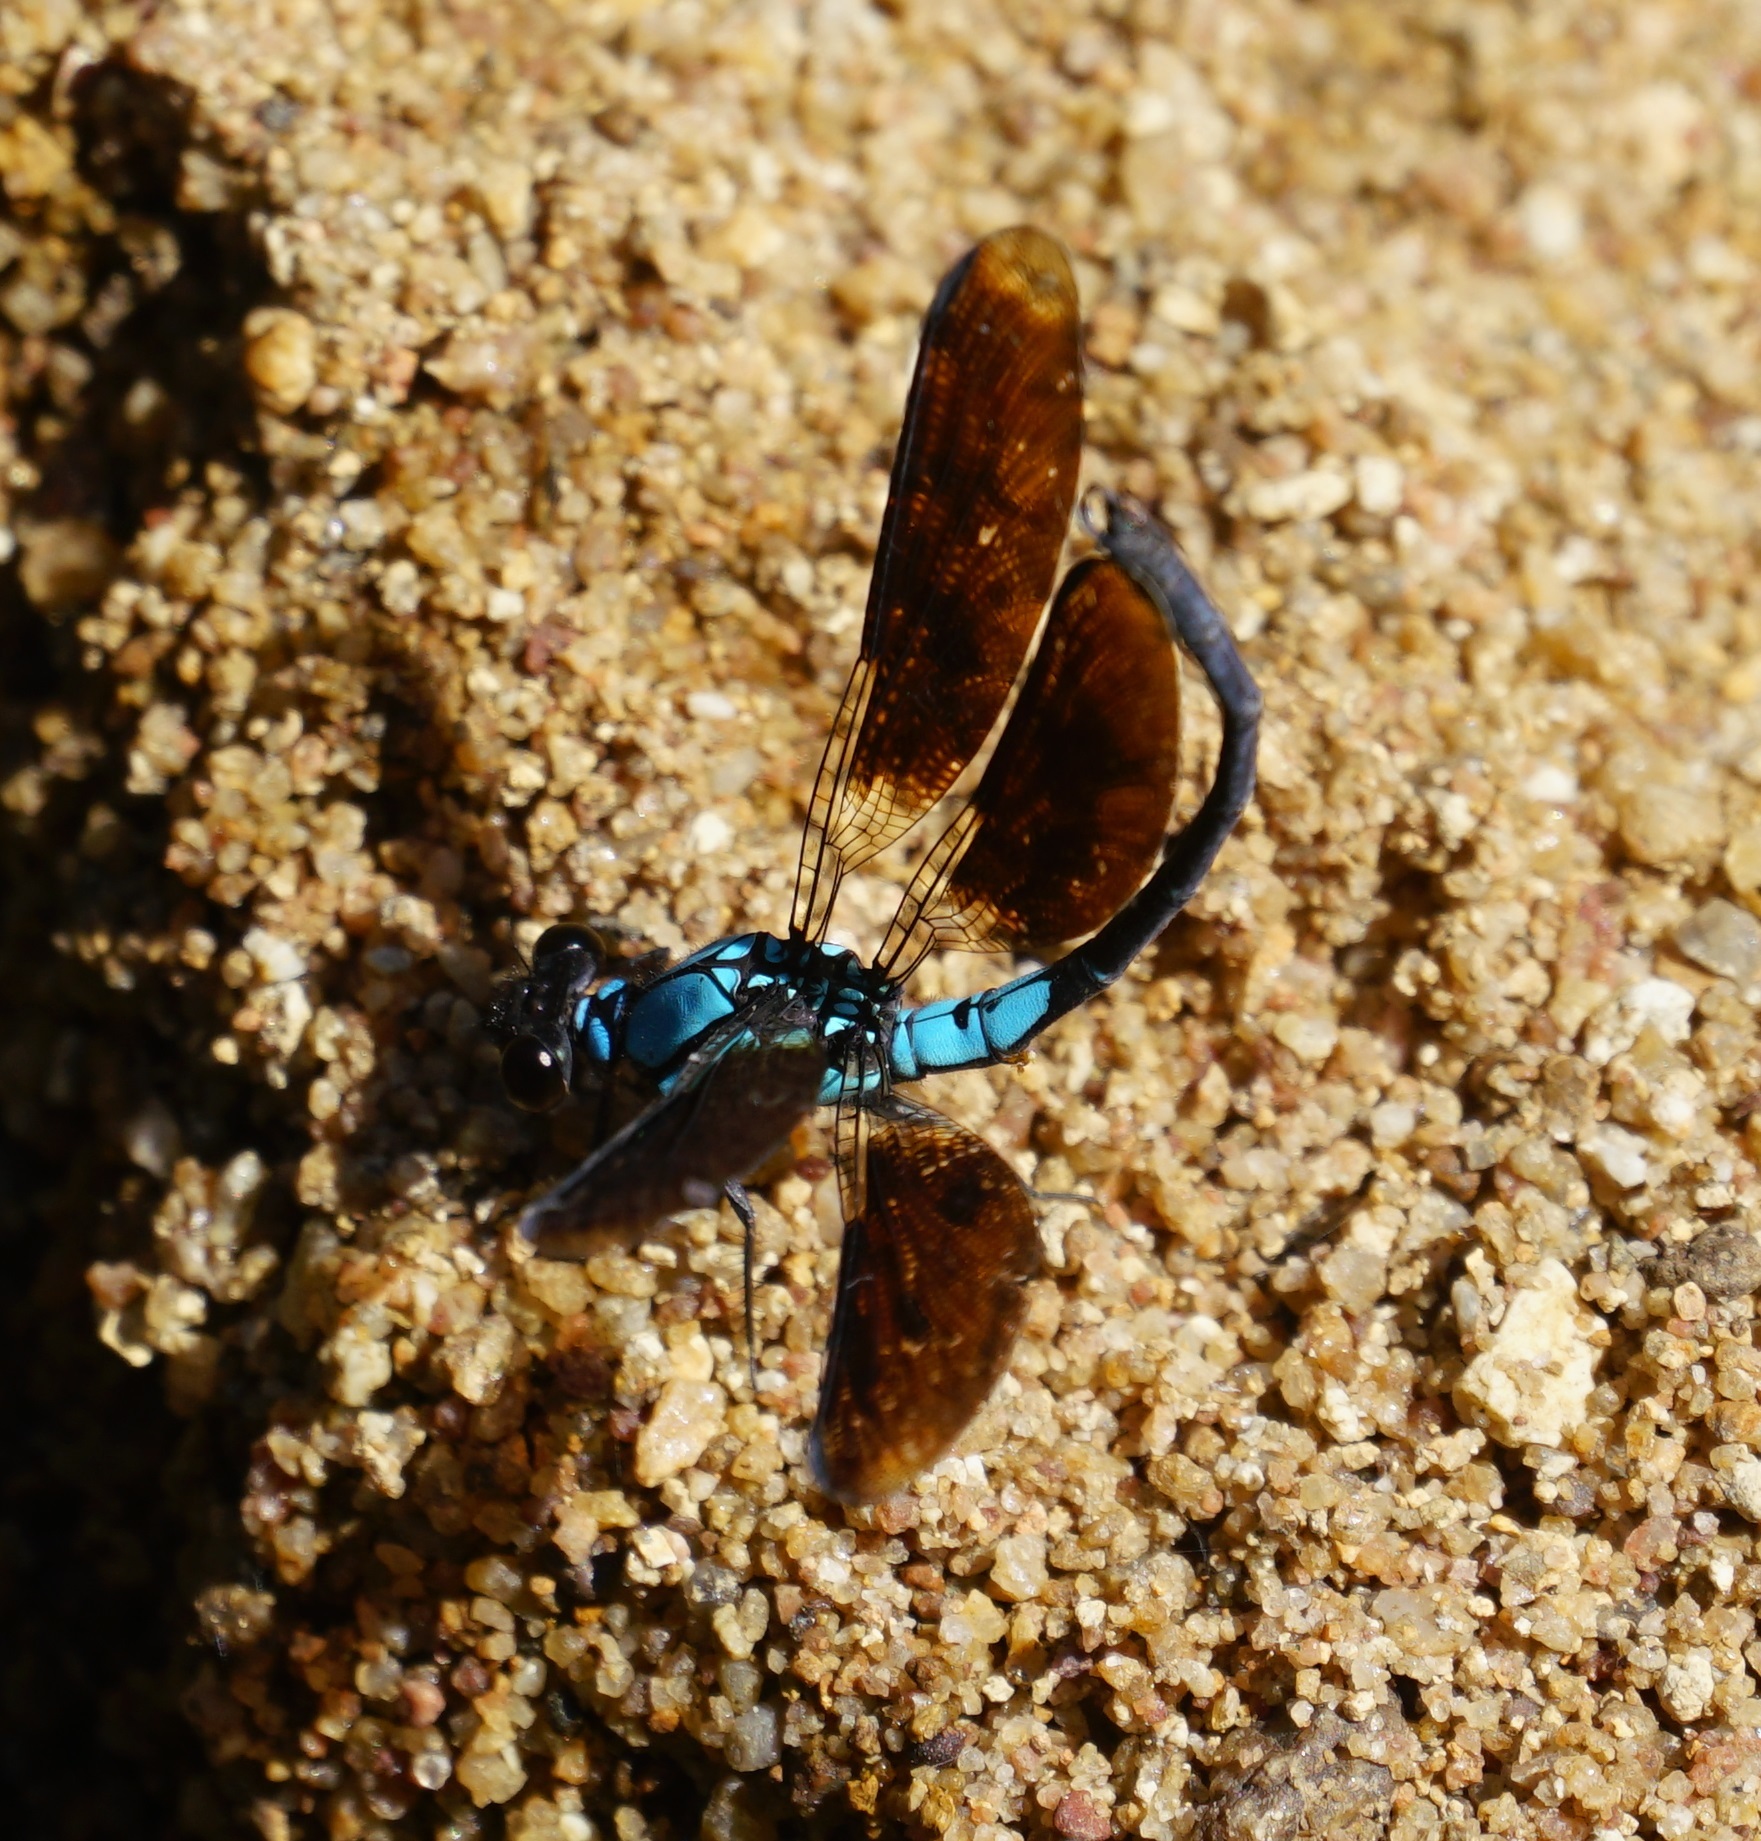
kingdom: Animalia
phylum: Arthropoda
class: Insecta
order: Odonata
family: Lestoideidae
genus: Diphlebia
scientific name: Diphlebia euphoeoides
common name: Tropical rockmaster
